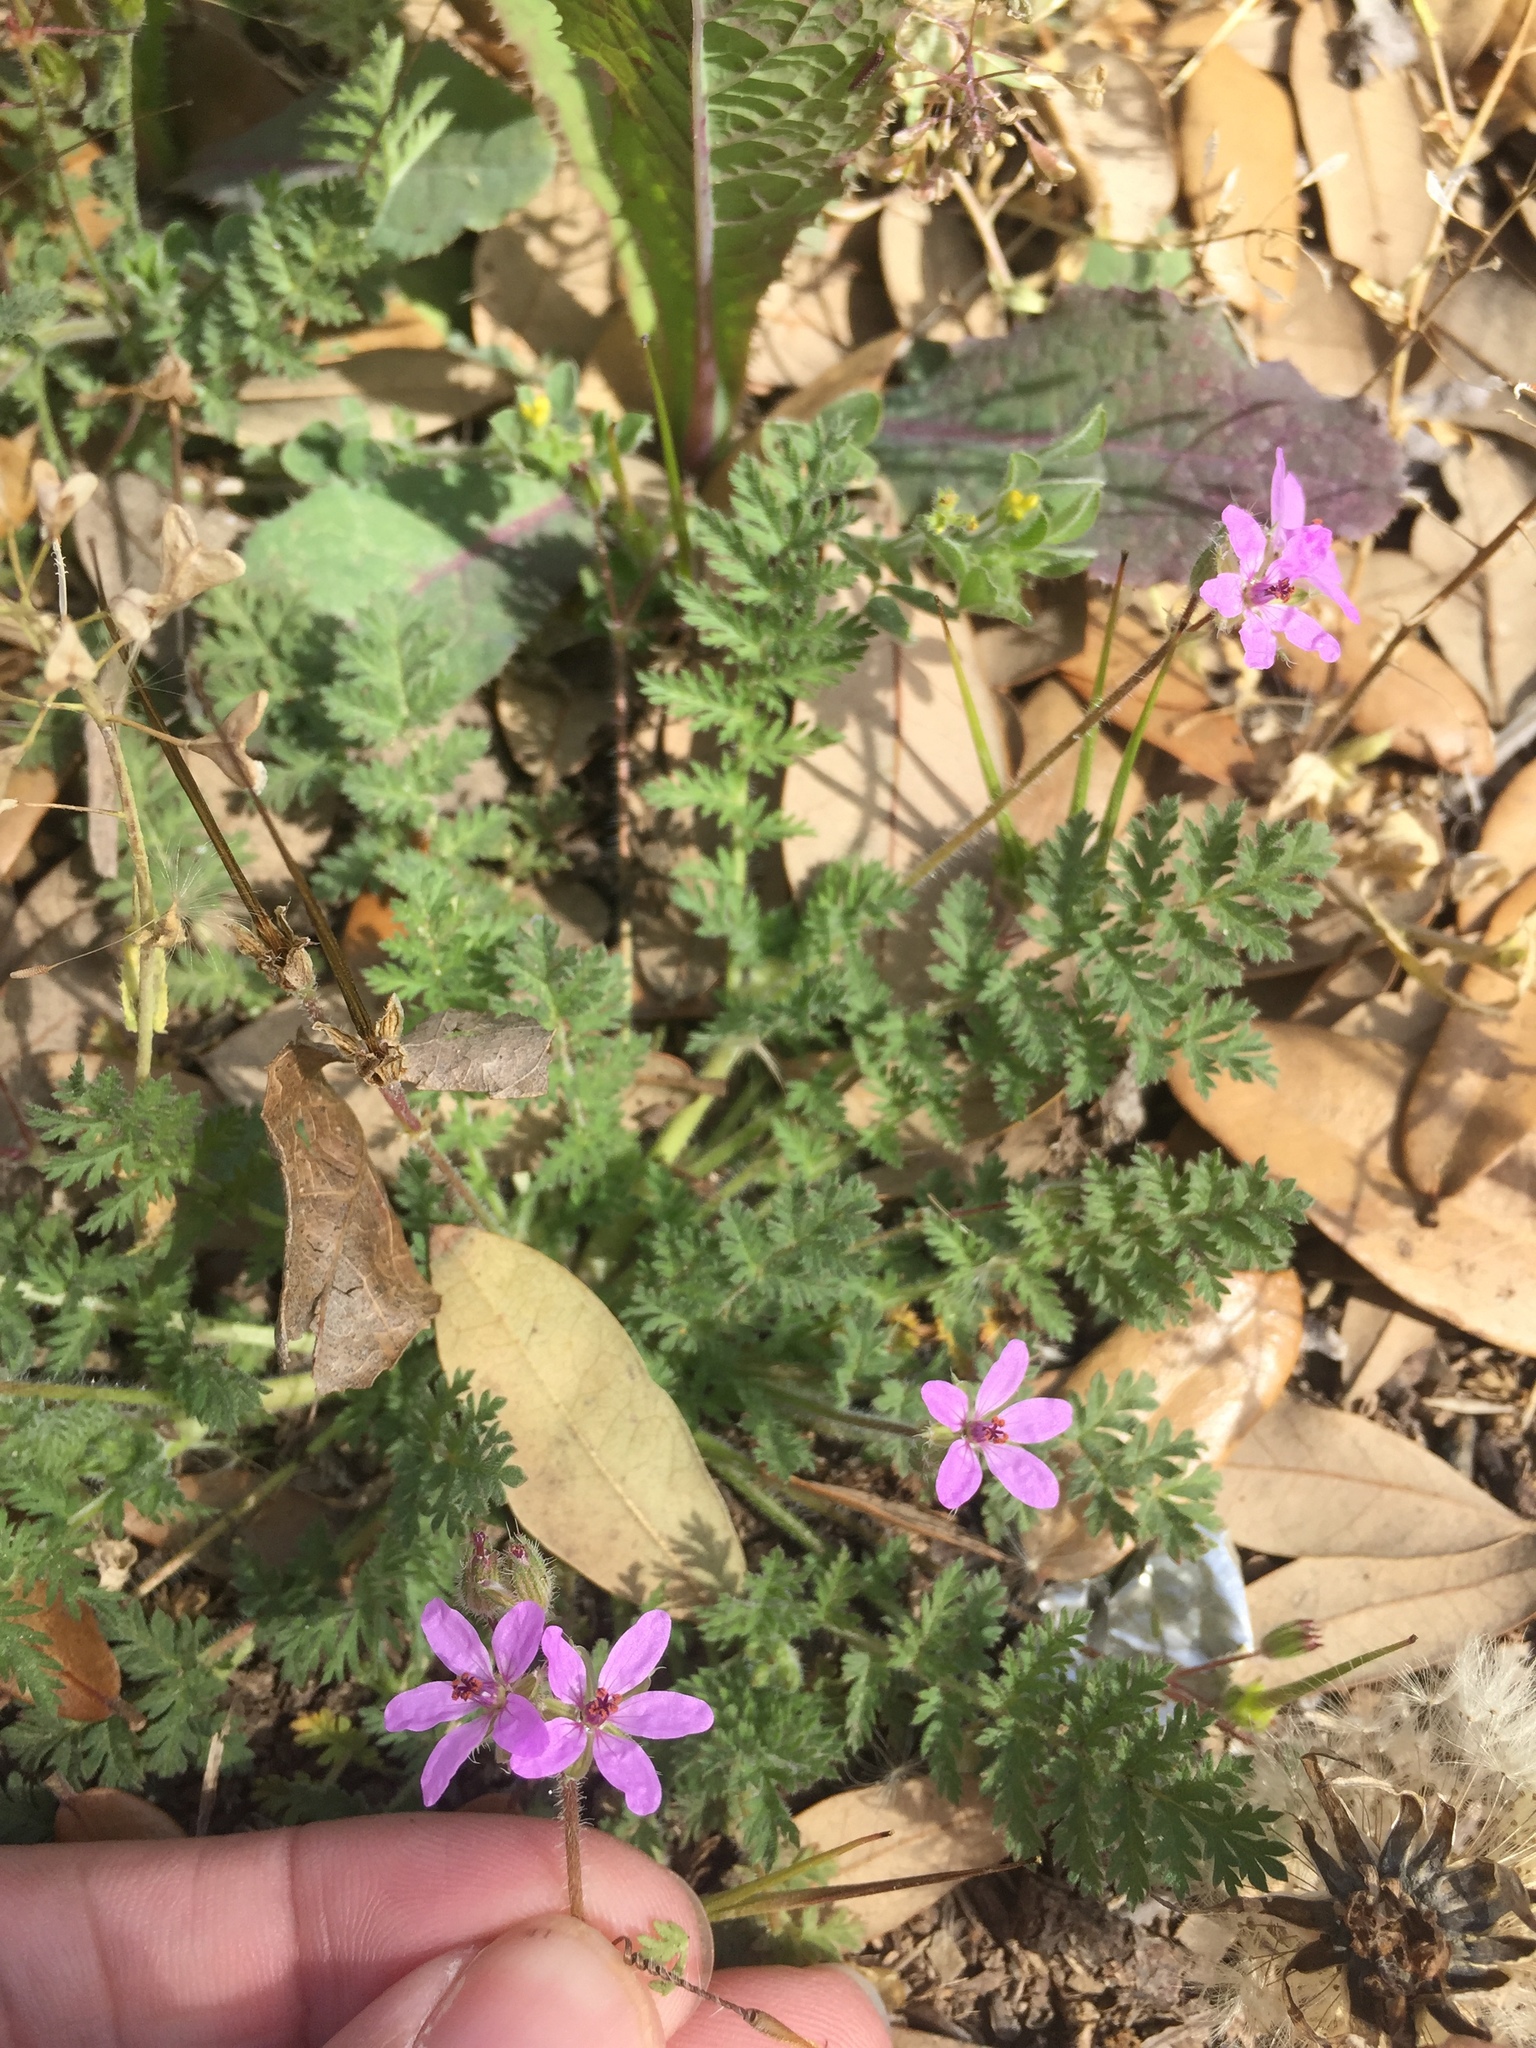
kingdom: Plantae
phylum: Tracheophyta
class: Magnoliopsida
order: Geraniales
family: Geraniaceae
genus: Erodium
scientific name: Erodium cicutarium
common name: Common stork's-bill
